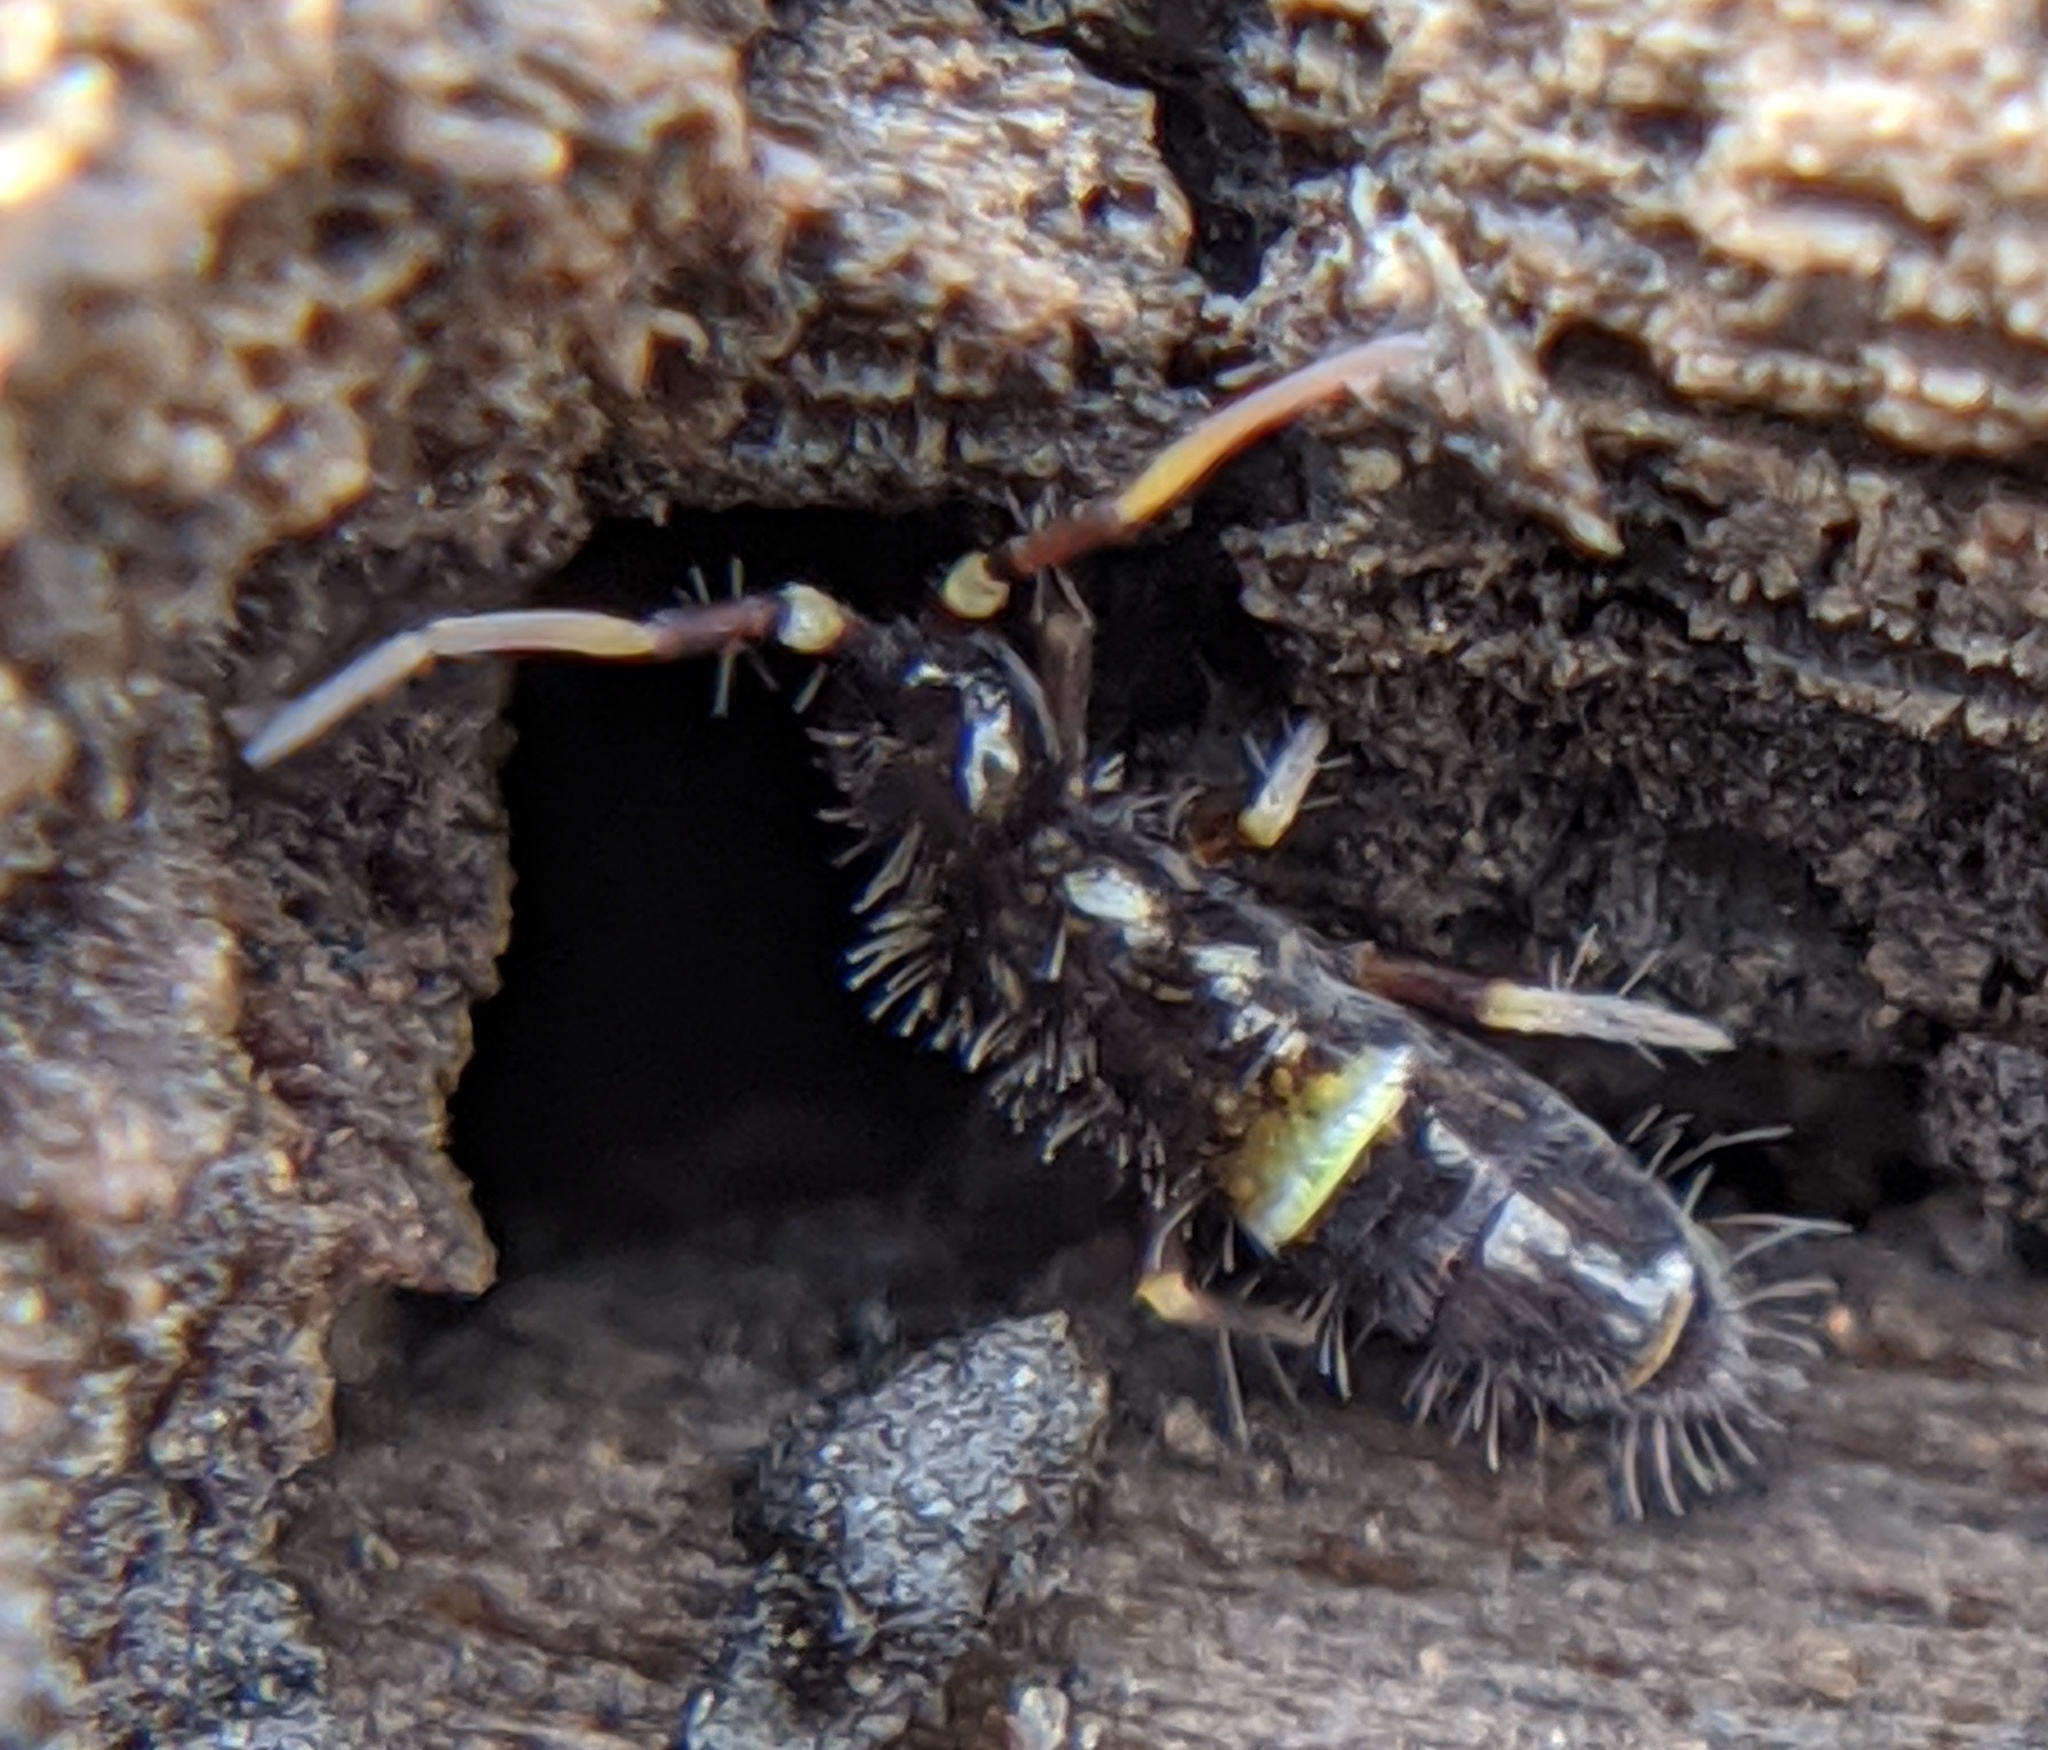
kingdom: Animalia
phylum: Arthropoda
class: Collembola
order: Entomobryomorpha
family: Orchesellidae
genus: Orchesella
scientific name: Orchesella cincta
